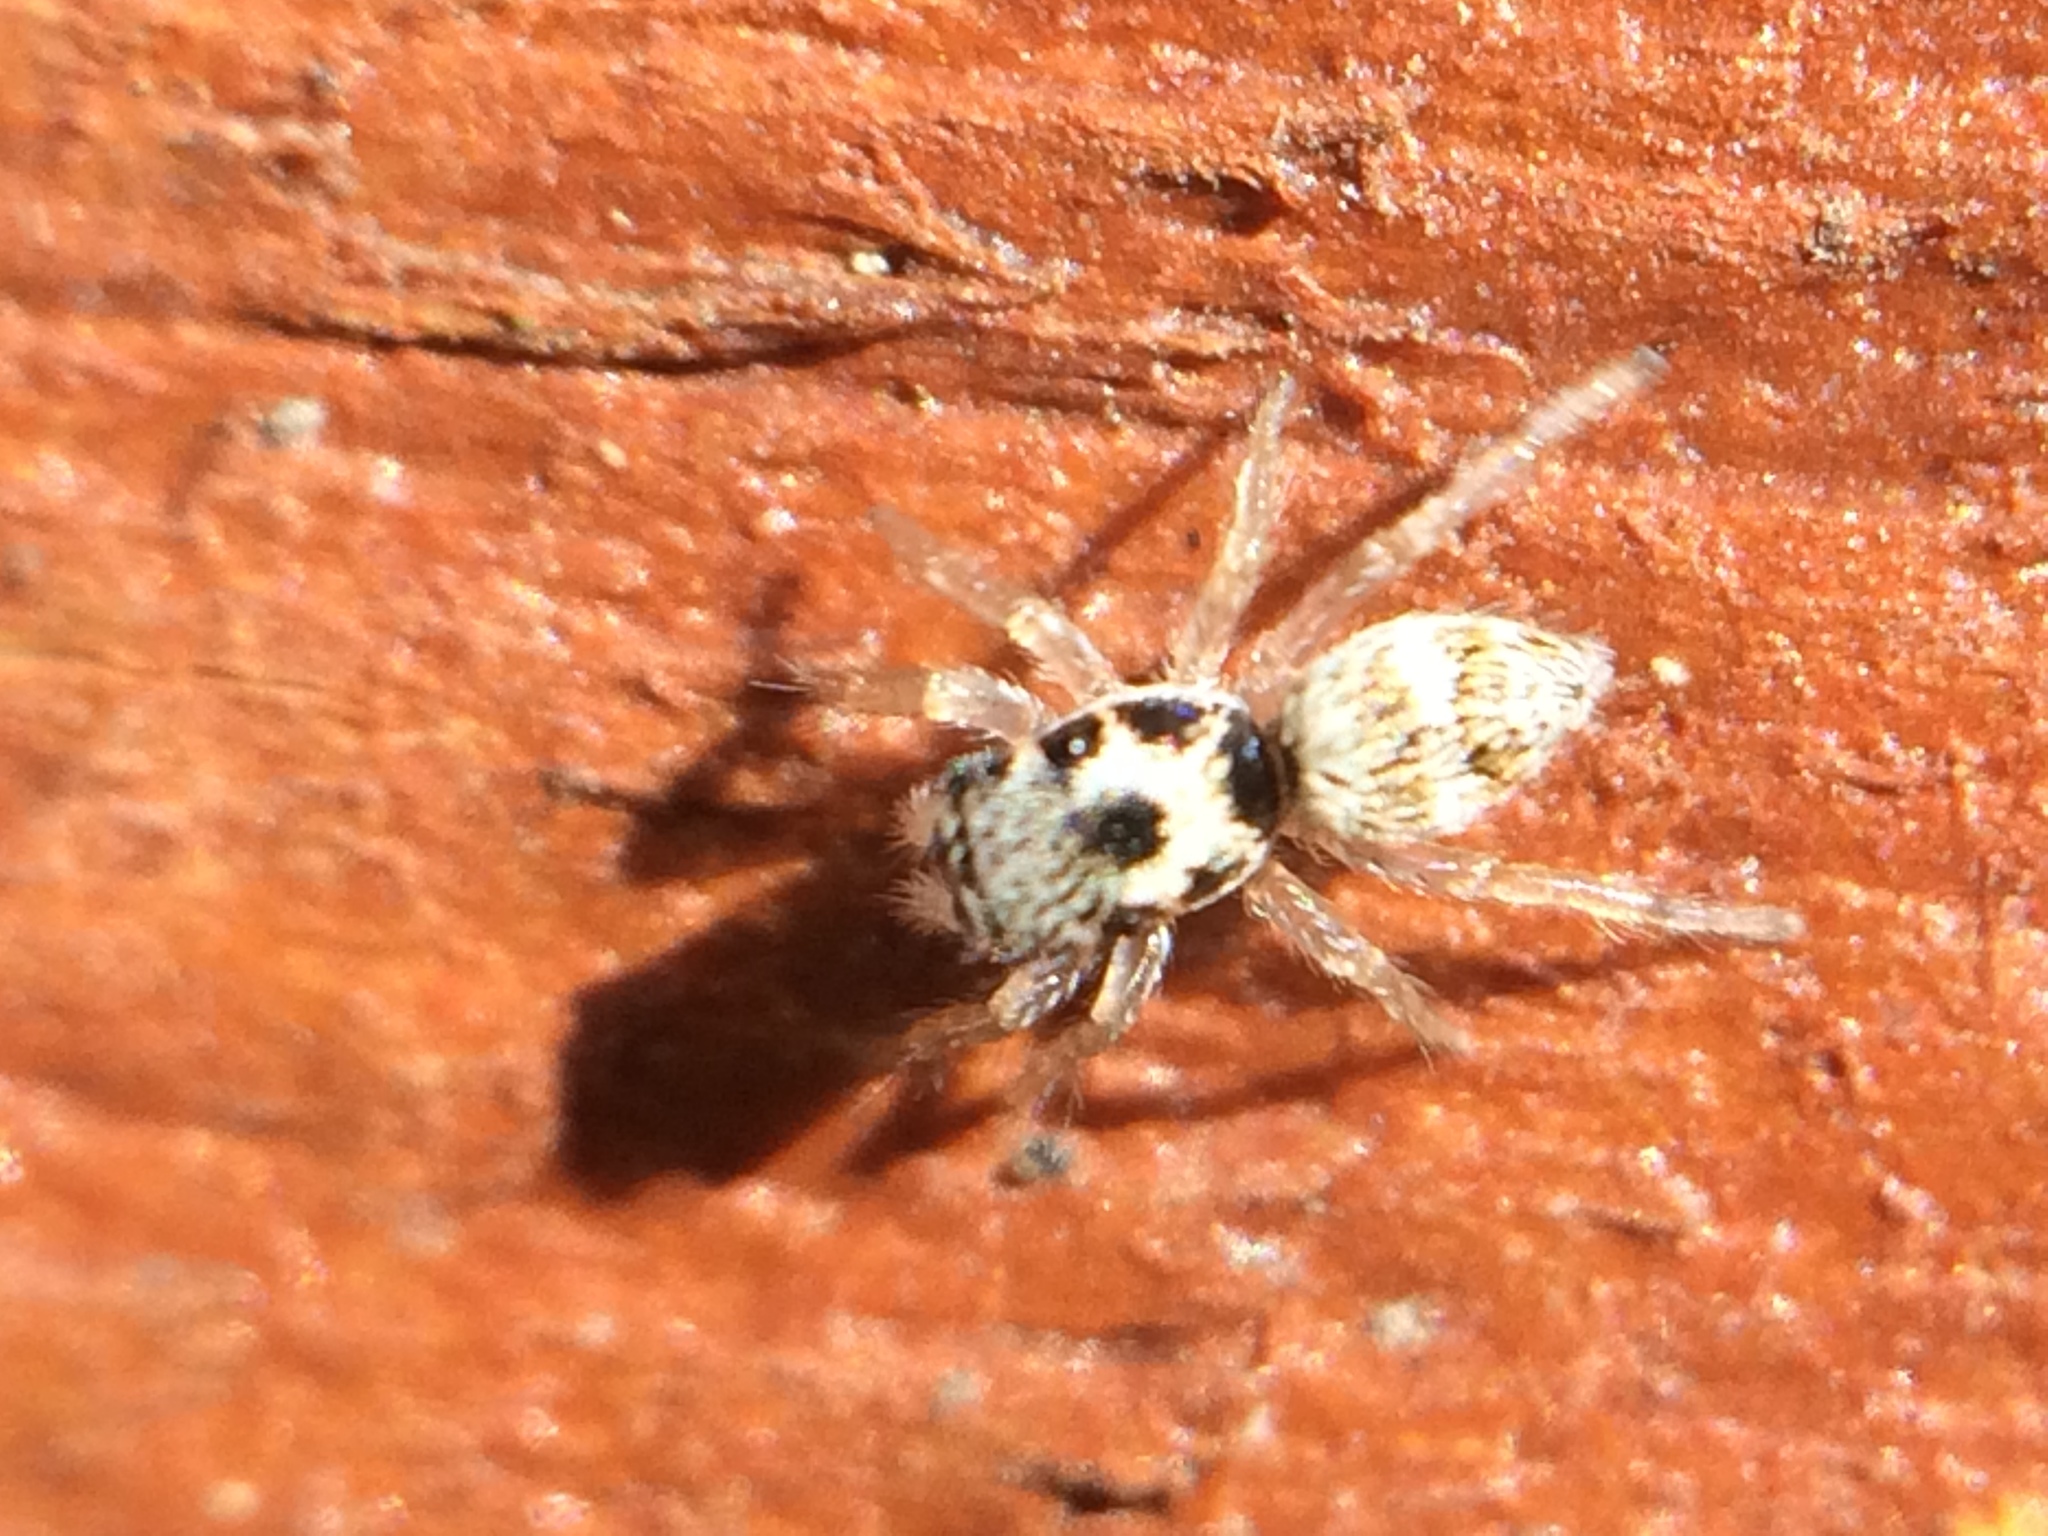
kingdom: Animalia
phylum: Arthropoda
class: Arachnida
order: Araneae
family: Salticidae
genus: Salticus
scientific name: Salticus scenicus
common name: Zebra jumper
